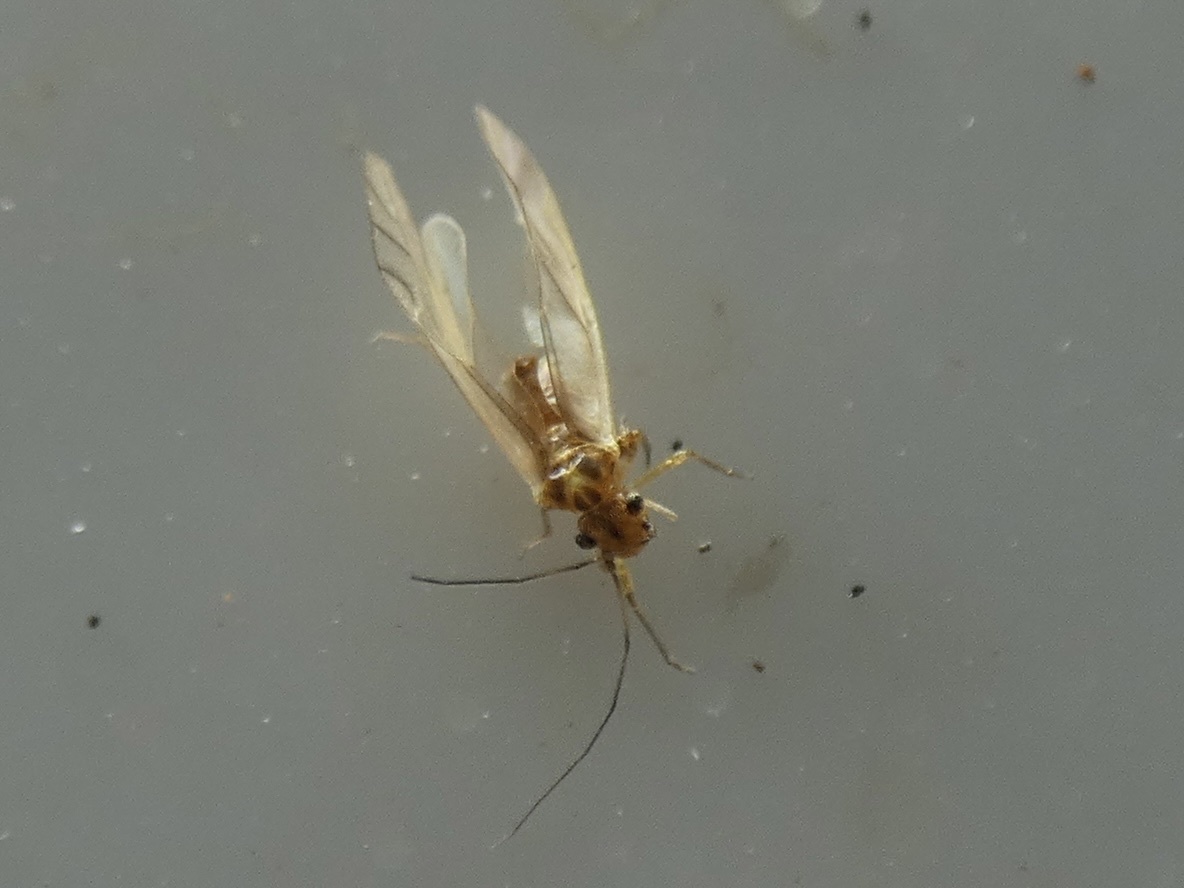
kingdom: Animalia
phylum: Arthropoda
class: Insecta
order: Psocodea
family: Caeciliusidae
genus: Valenzuela
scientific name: Valenzuela flavidus
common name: Yellow barklouse
